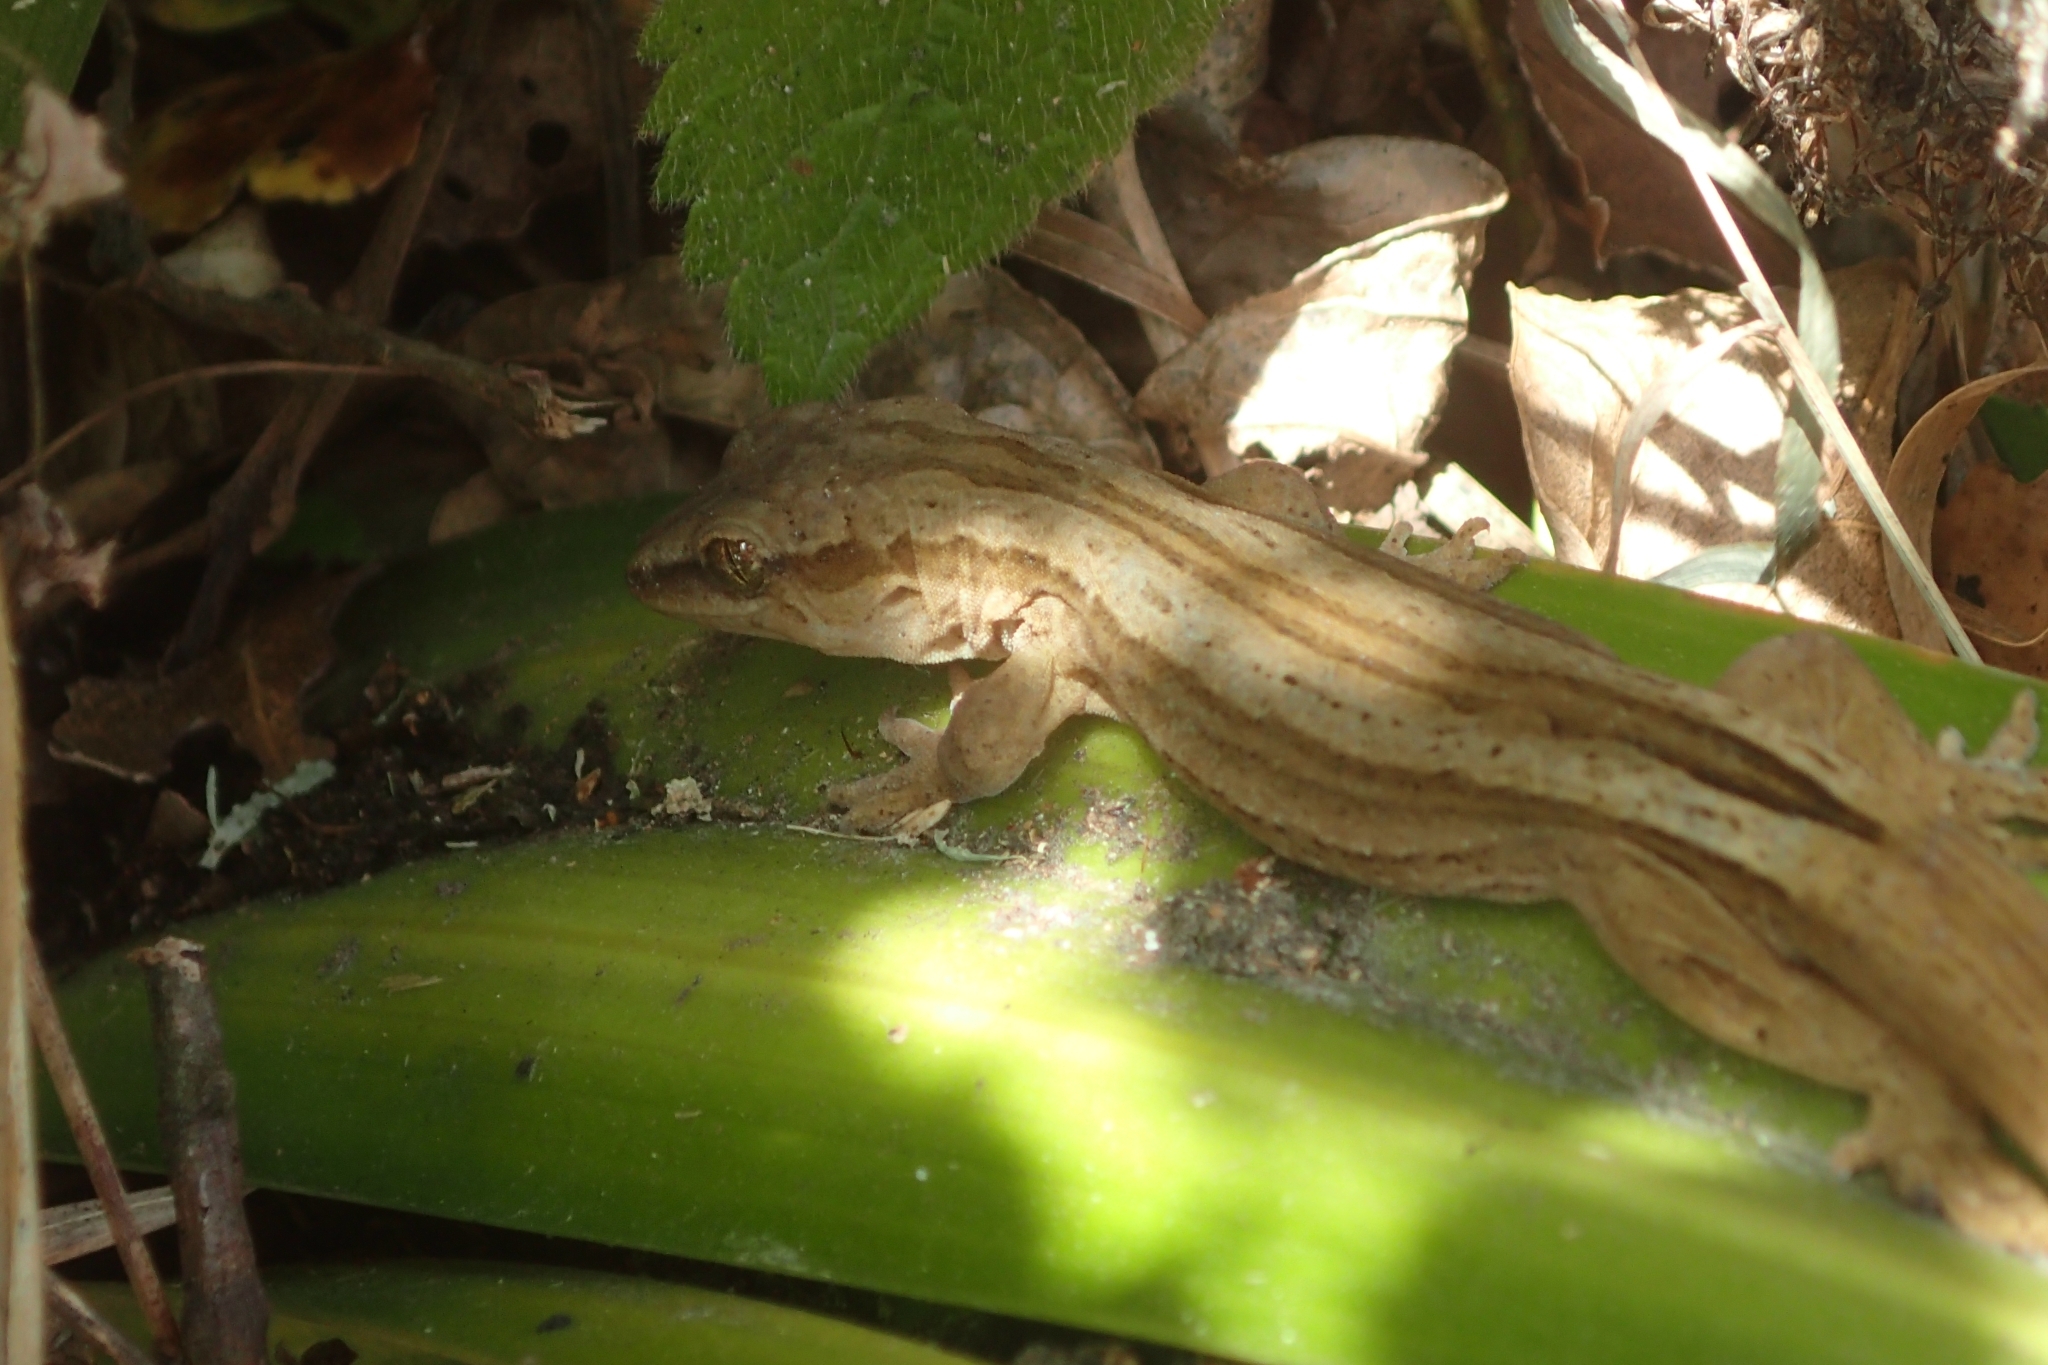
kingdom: Animalia
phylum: Chordata
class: Squamata
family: Diplodactylidae
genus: Woodworthia
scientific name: Woodworthia chrysosiretica
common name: Gold-striped gecko
